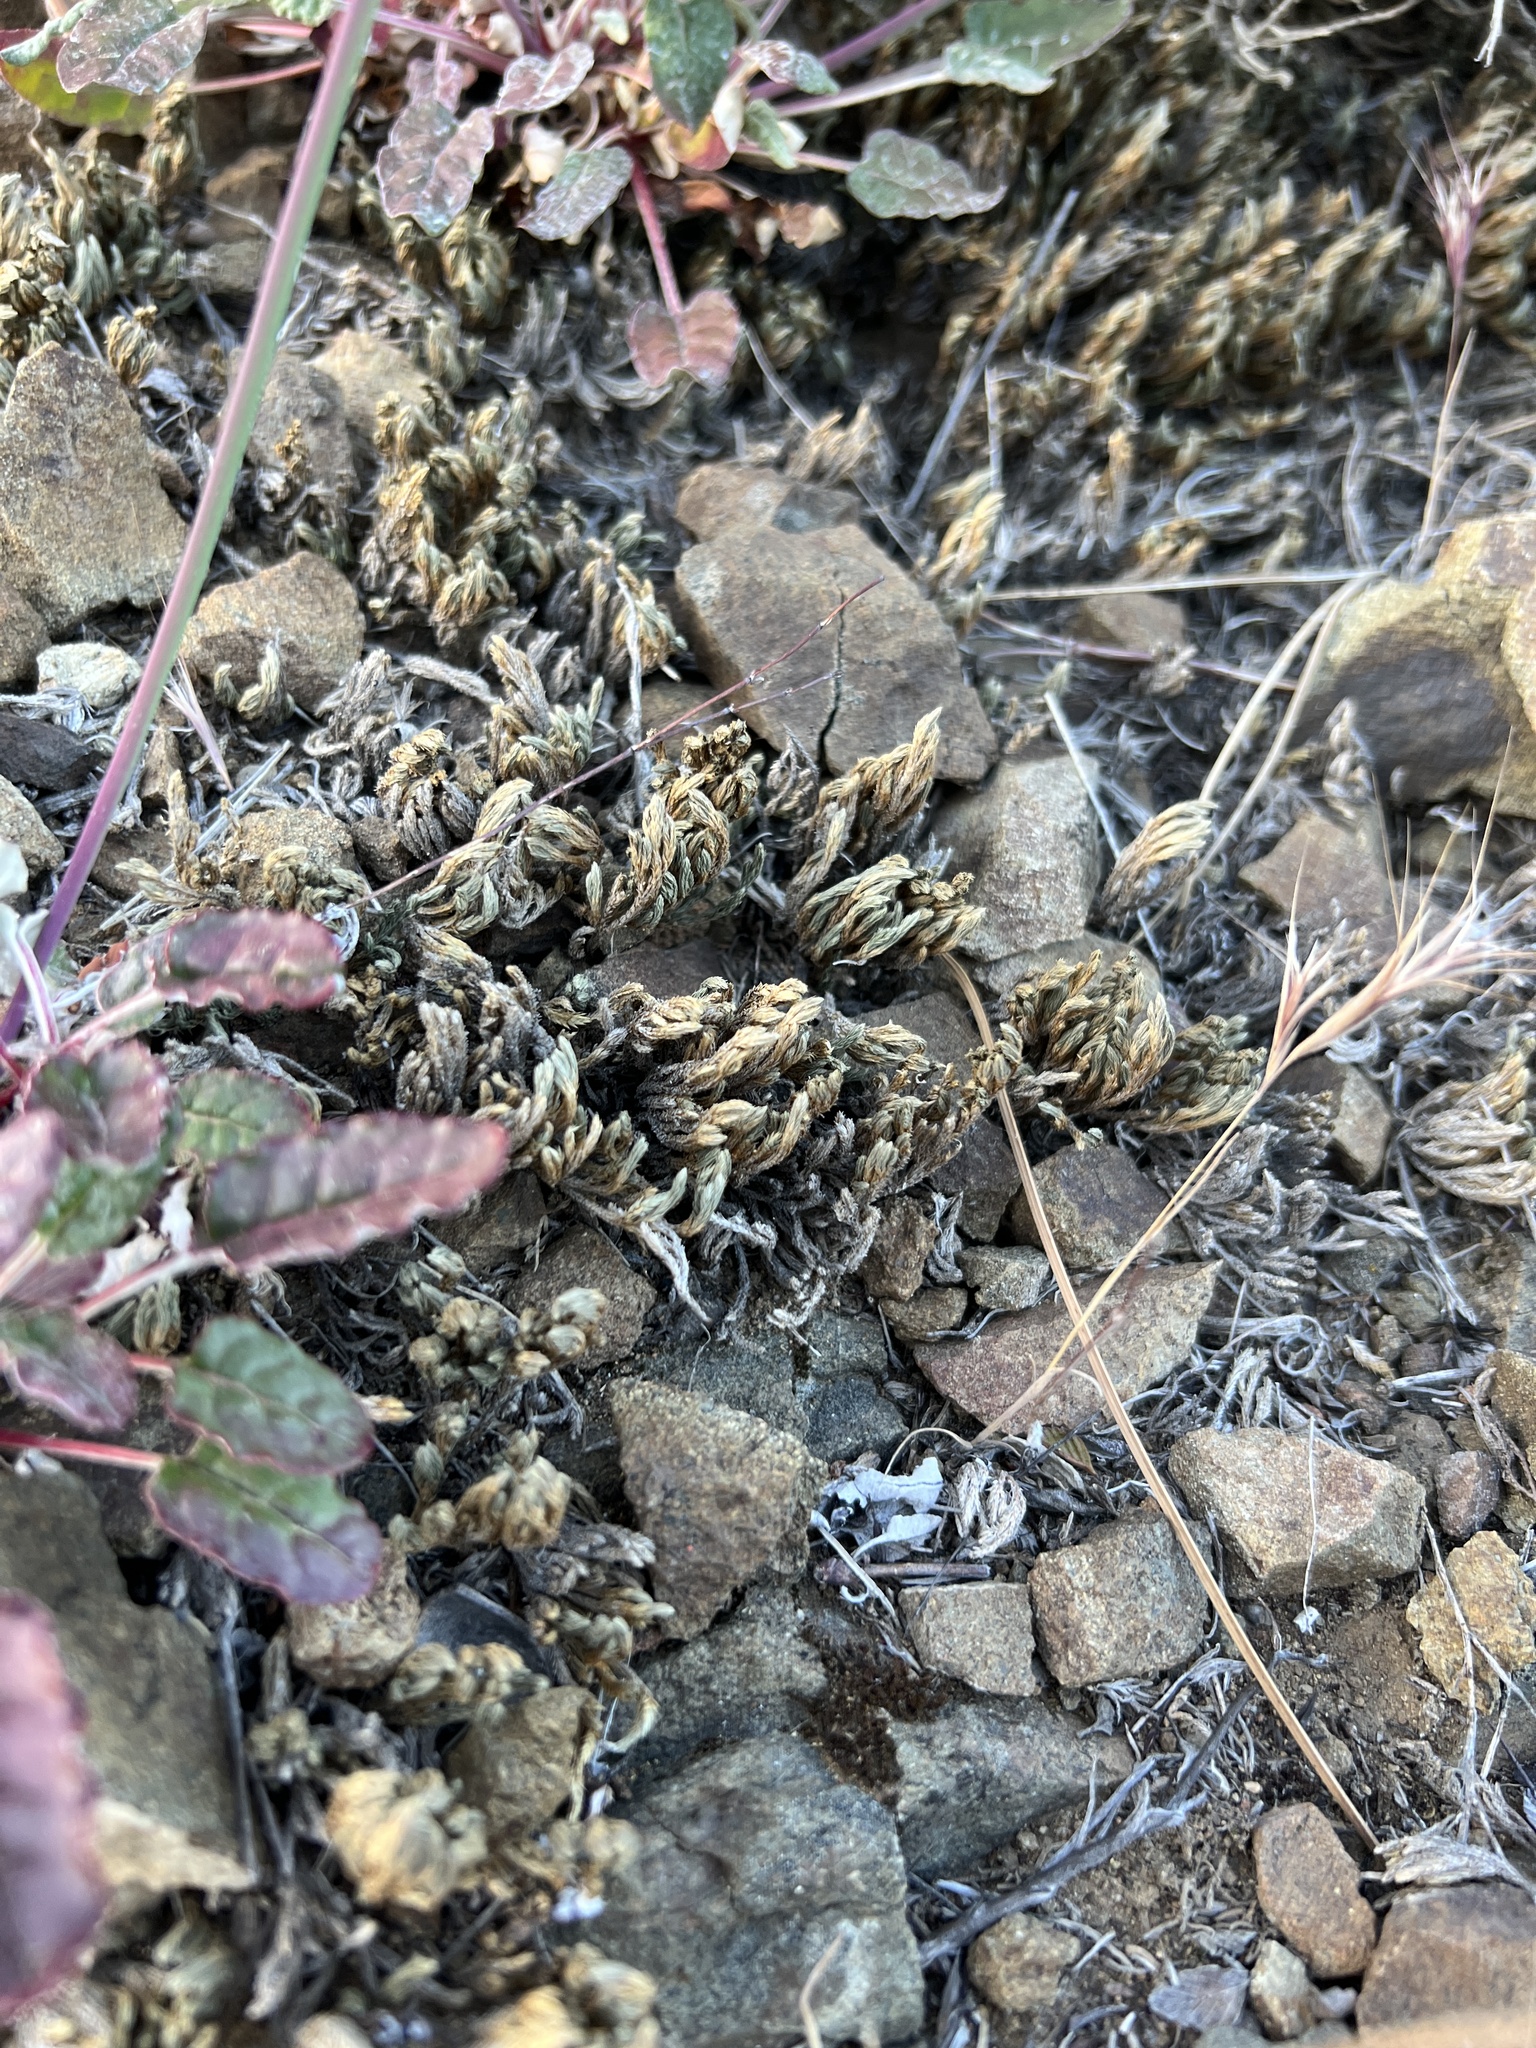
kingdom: Plantae
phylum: Tracheophyta
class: Lycopodiopsida
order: Selaginellales
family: Selaginellaceae
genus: Selaginella
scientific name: Selaginella bigelovii
